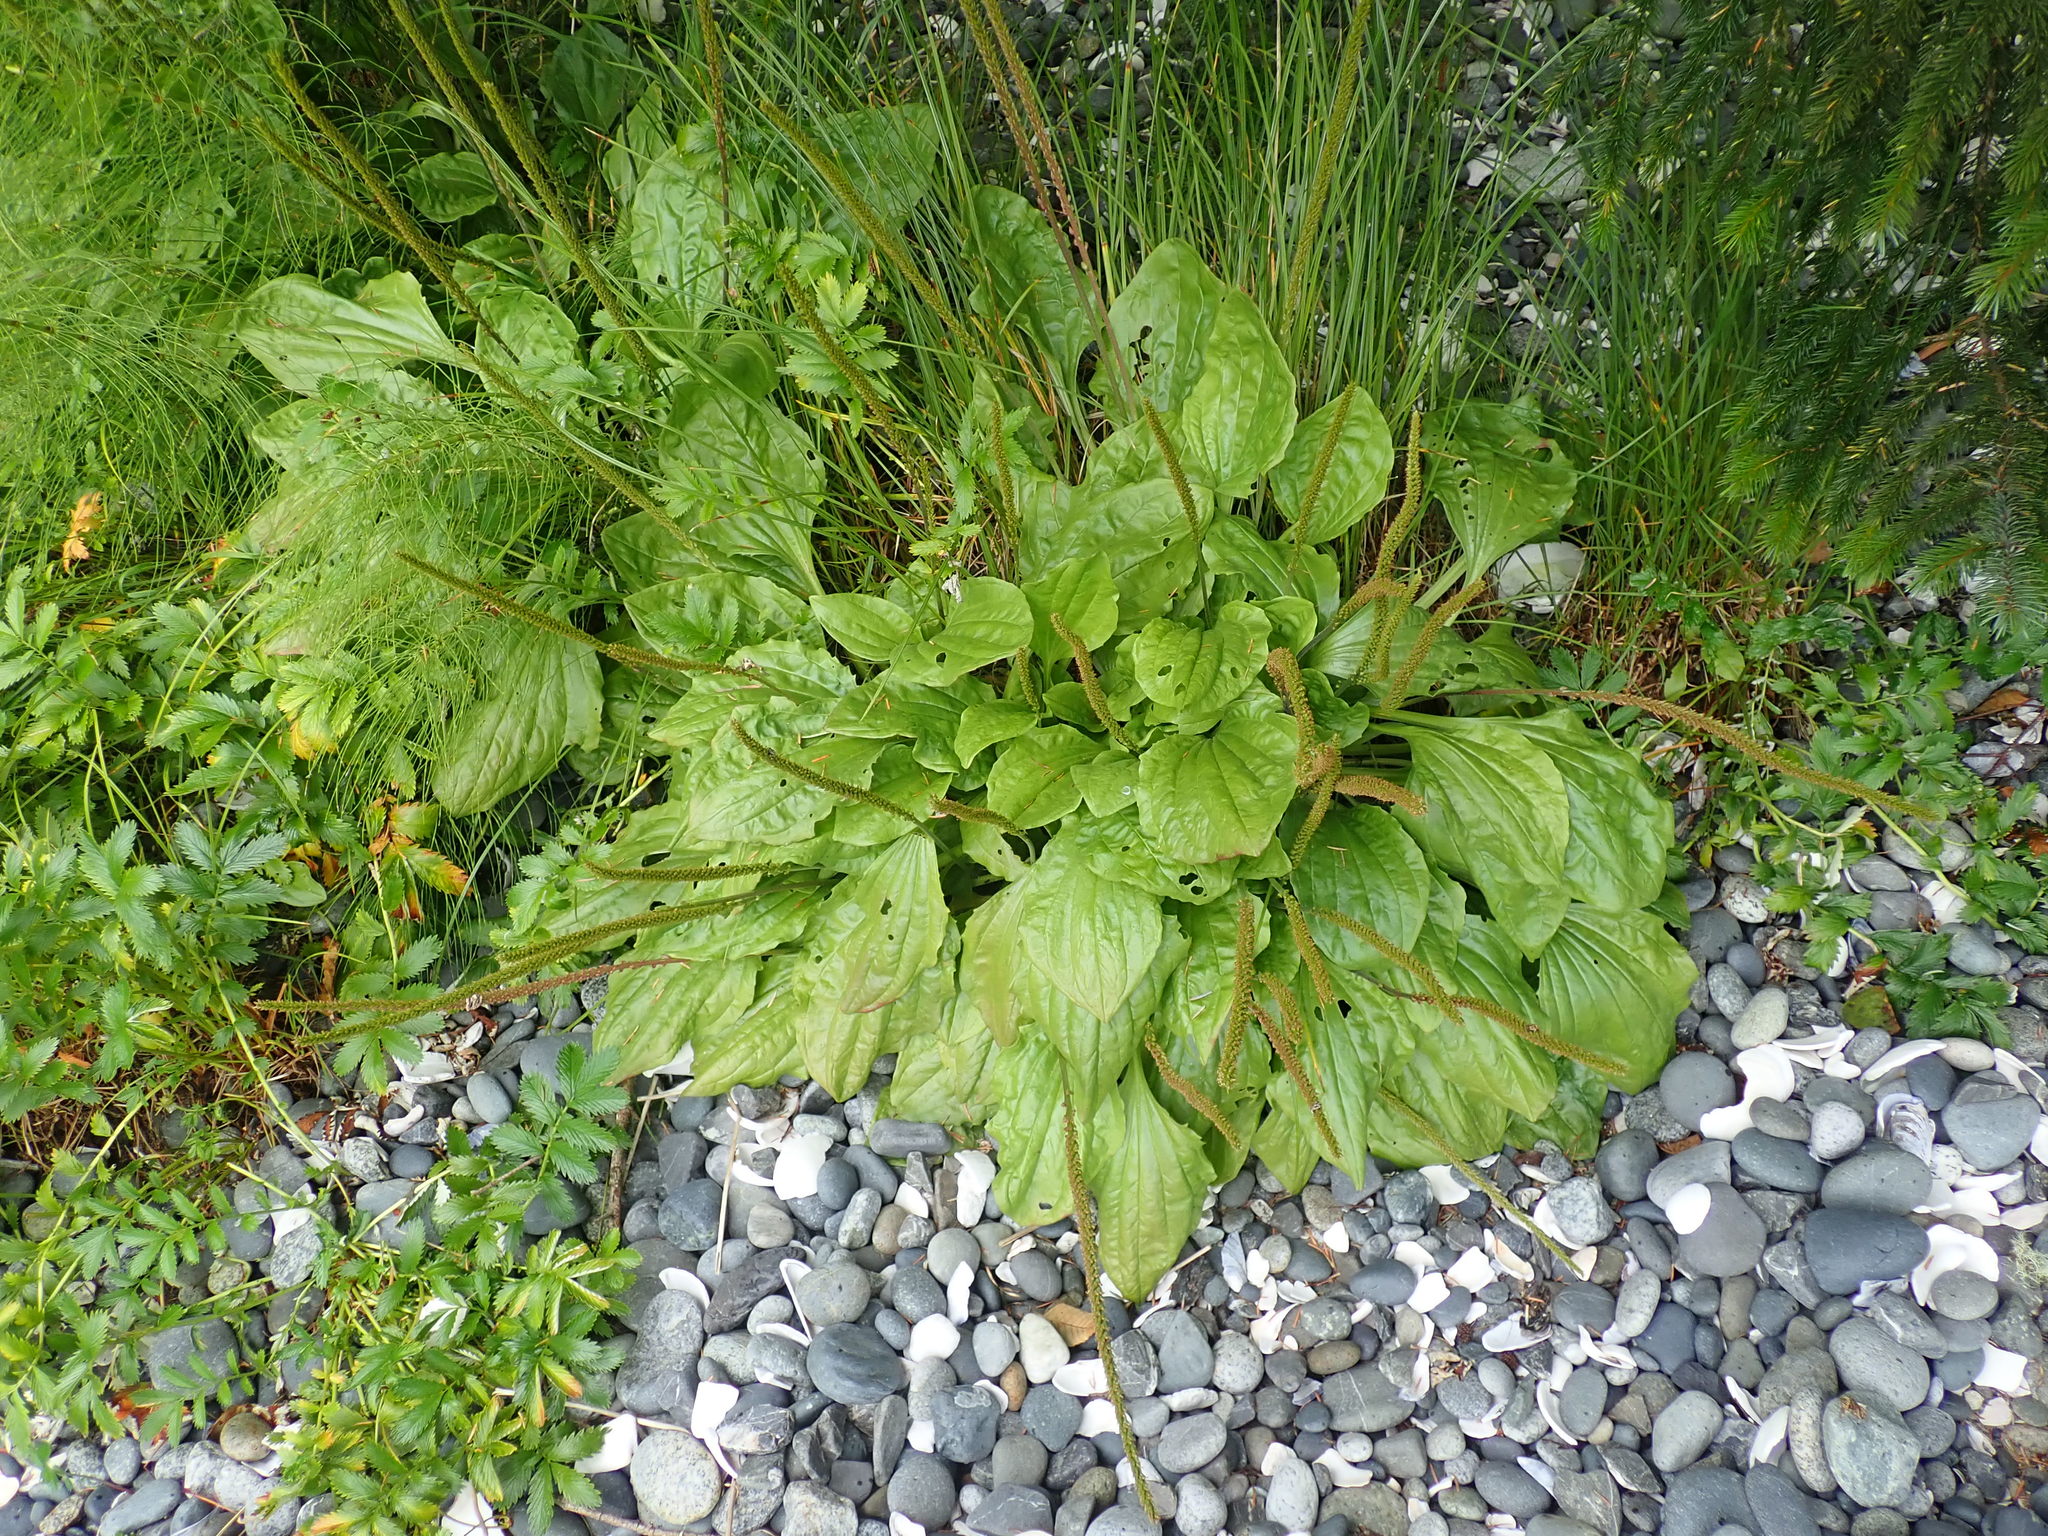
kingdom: Plantae
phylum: Tracheophyta
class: Magnoliopsida
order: Lamiales
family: Plantaginaceae
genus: Plantago
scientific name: Plantago major
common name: Common plantain
